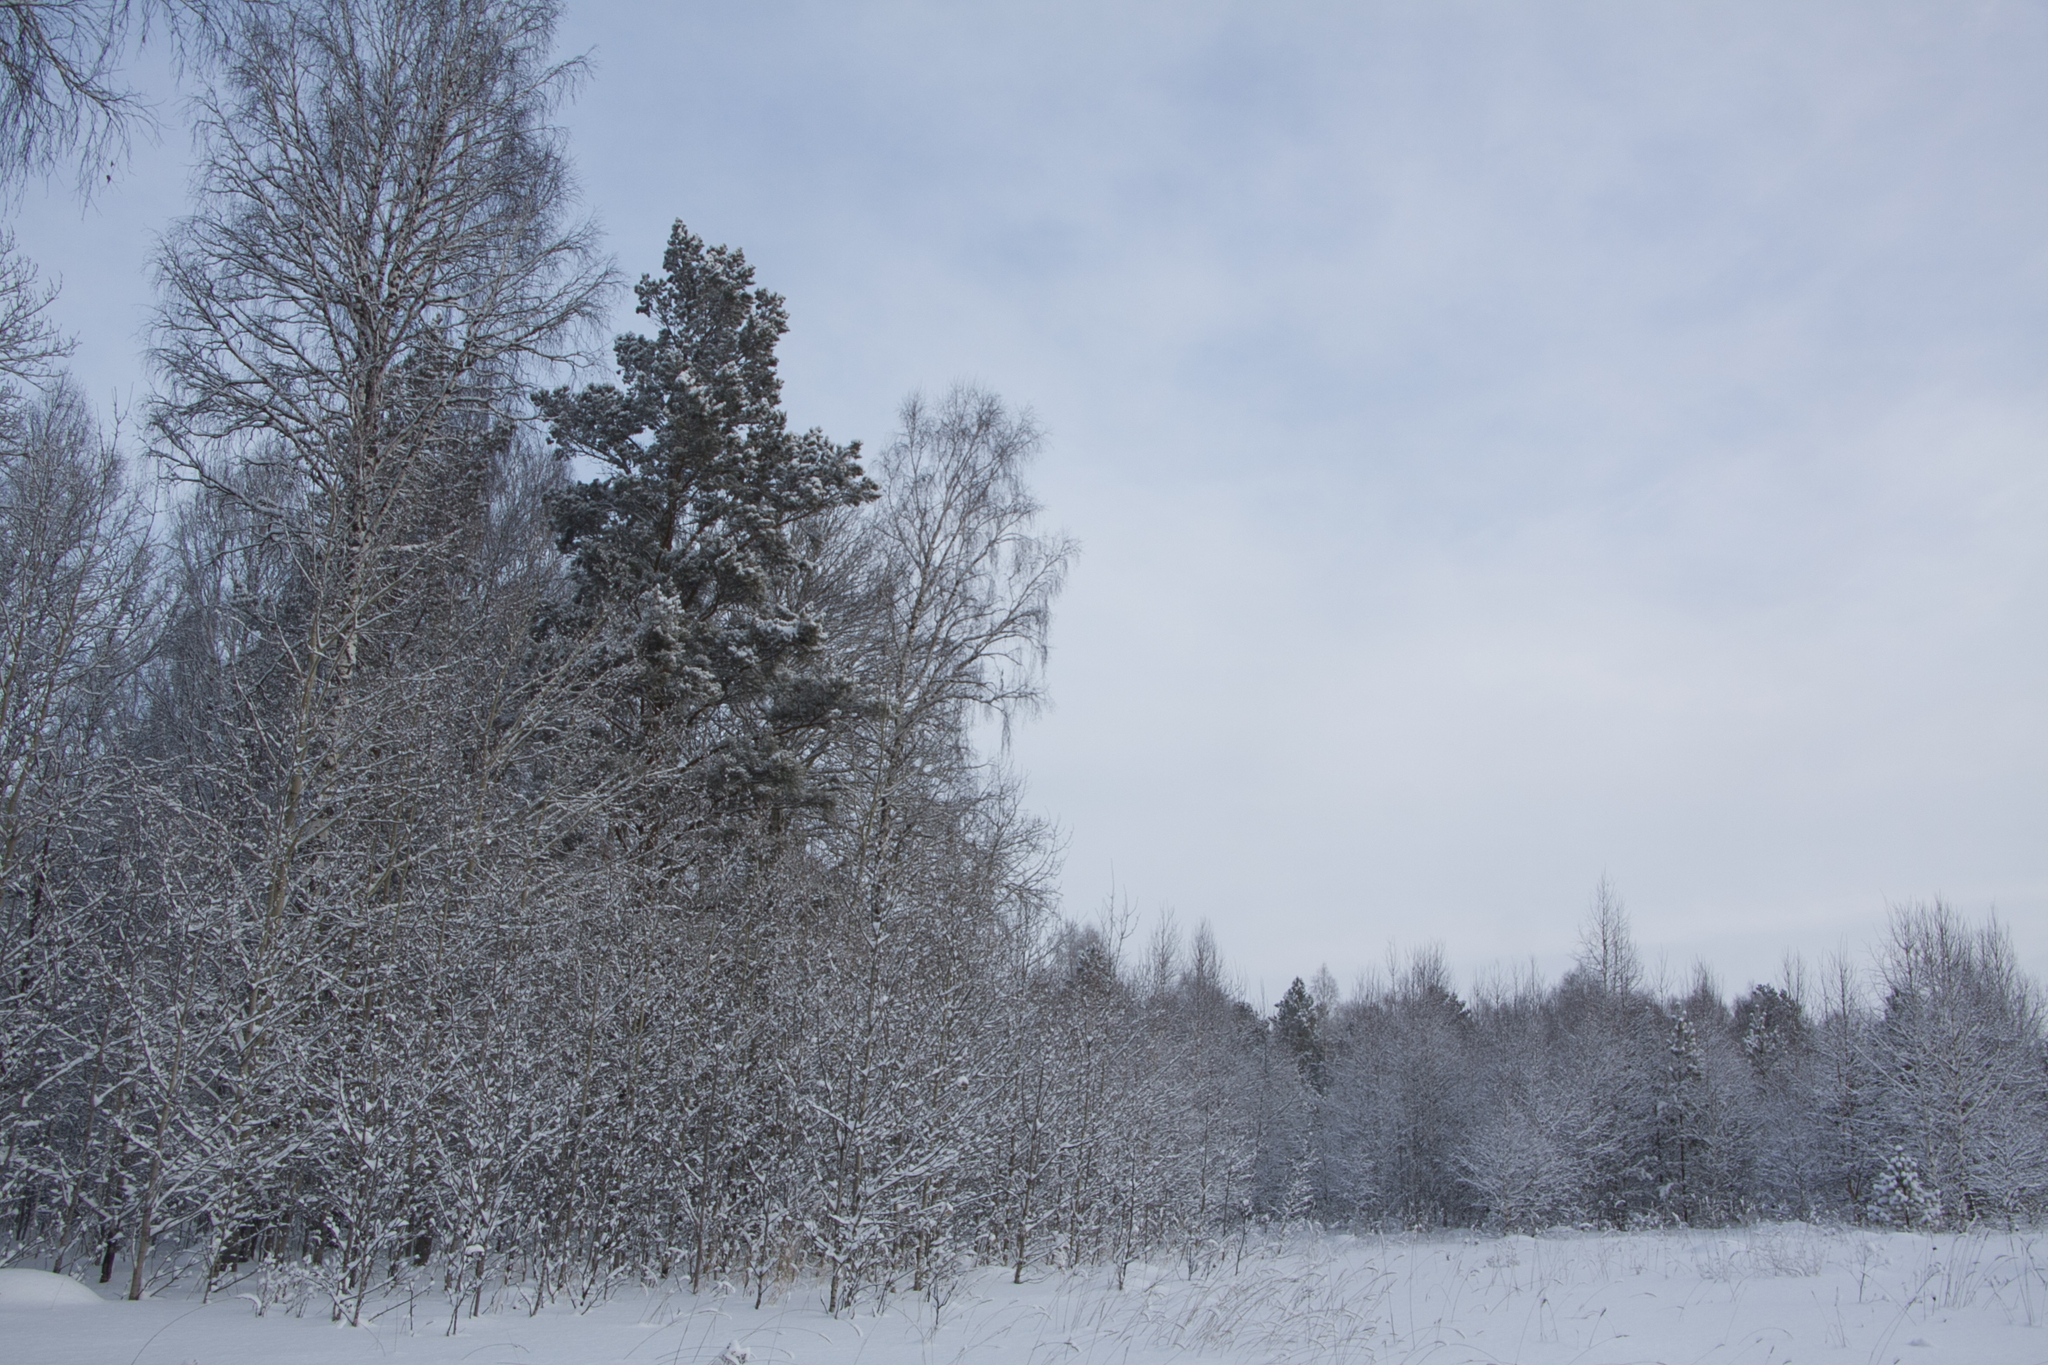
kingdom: Plantae
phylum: Tracheophyta
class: Pinopsida
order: Pinales
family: Pinaceae
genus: Pinus
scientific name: Pinus sylvestris
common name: Scots pine
